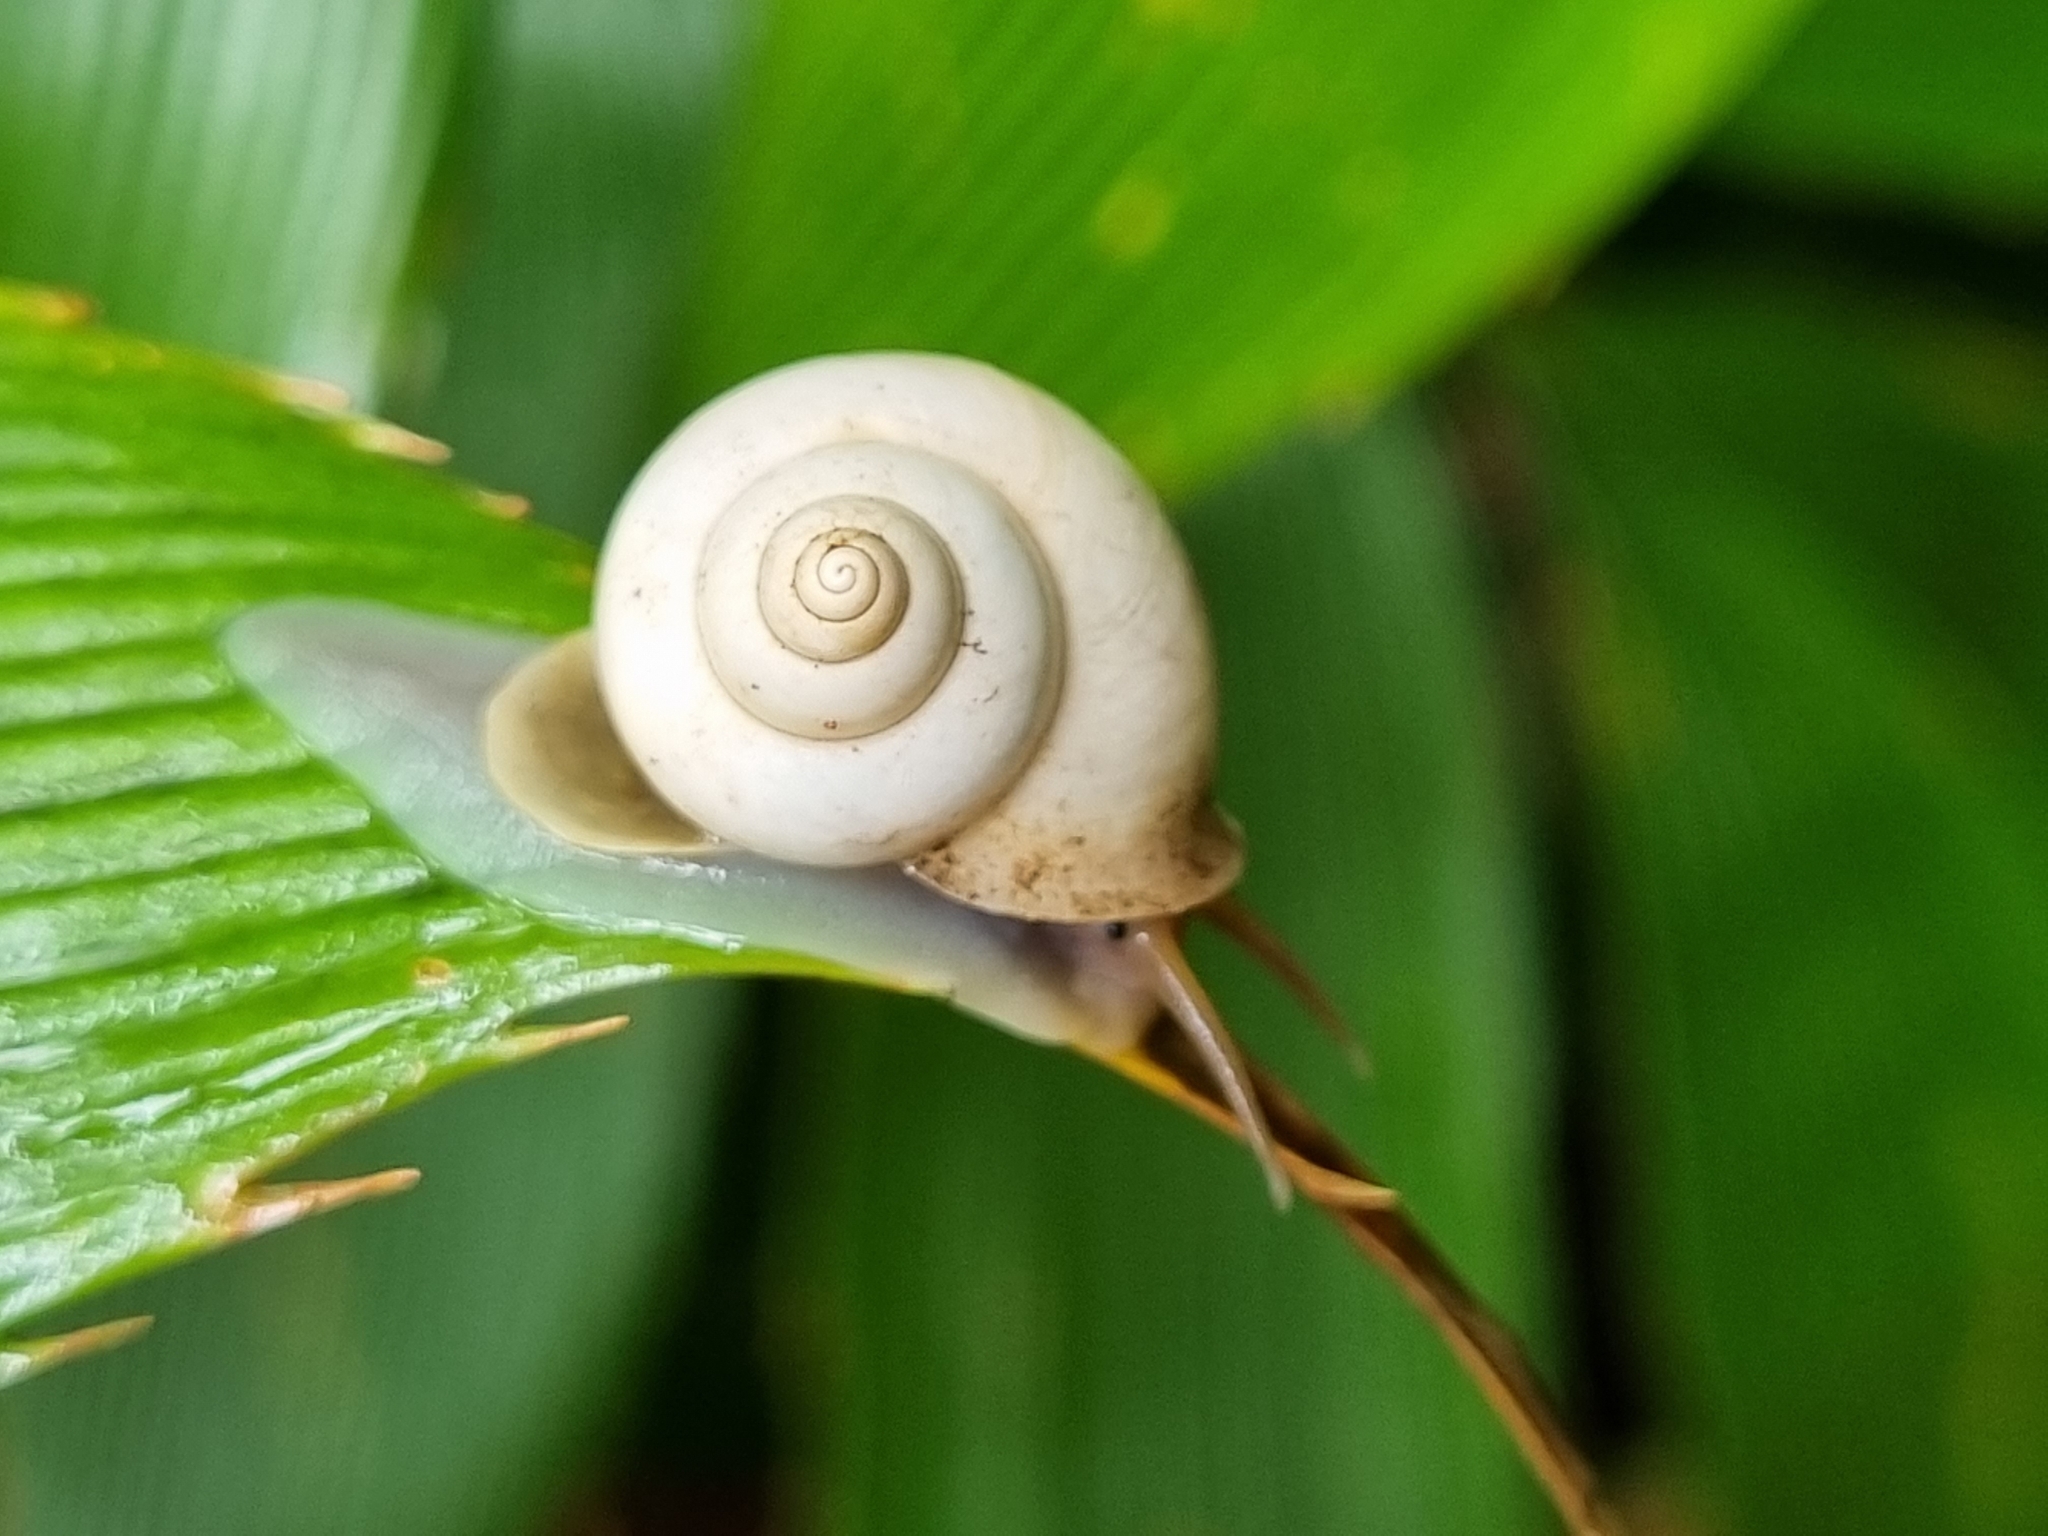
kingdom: Animalia
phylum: Mollusca
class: Gastropoda
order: Architaenioglossa
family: Cyclophoridae
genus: Leptopoma
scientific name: Leptopoma perlucidum
